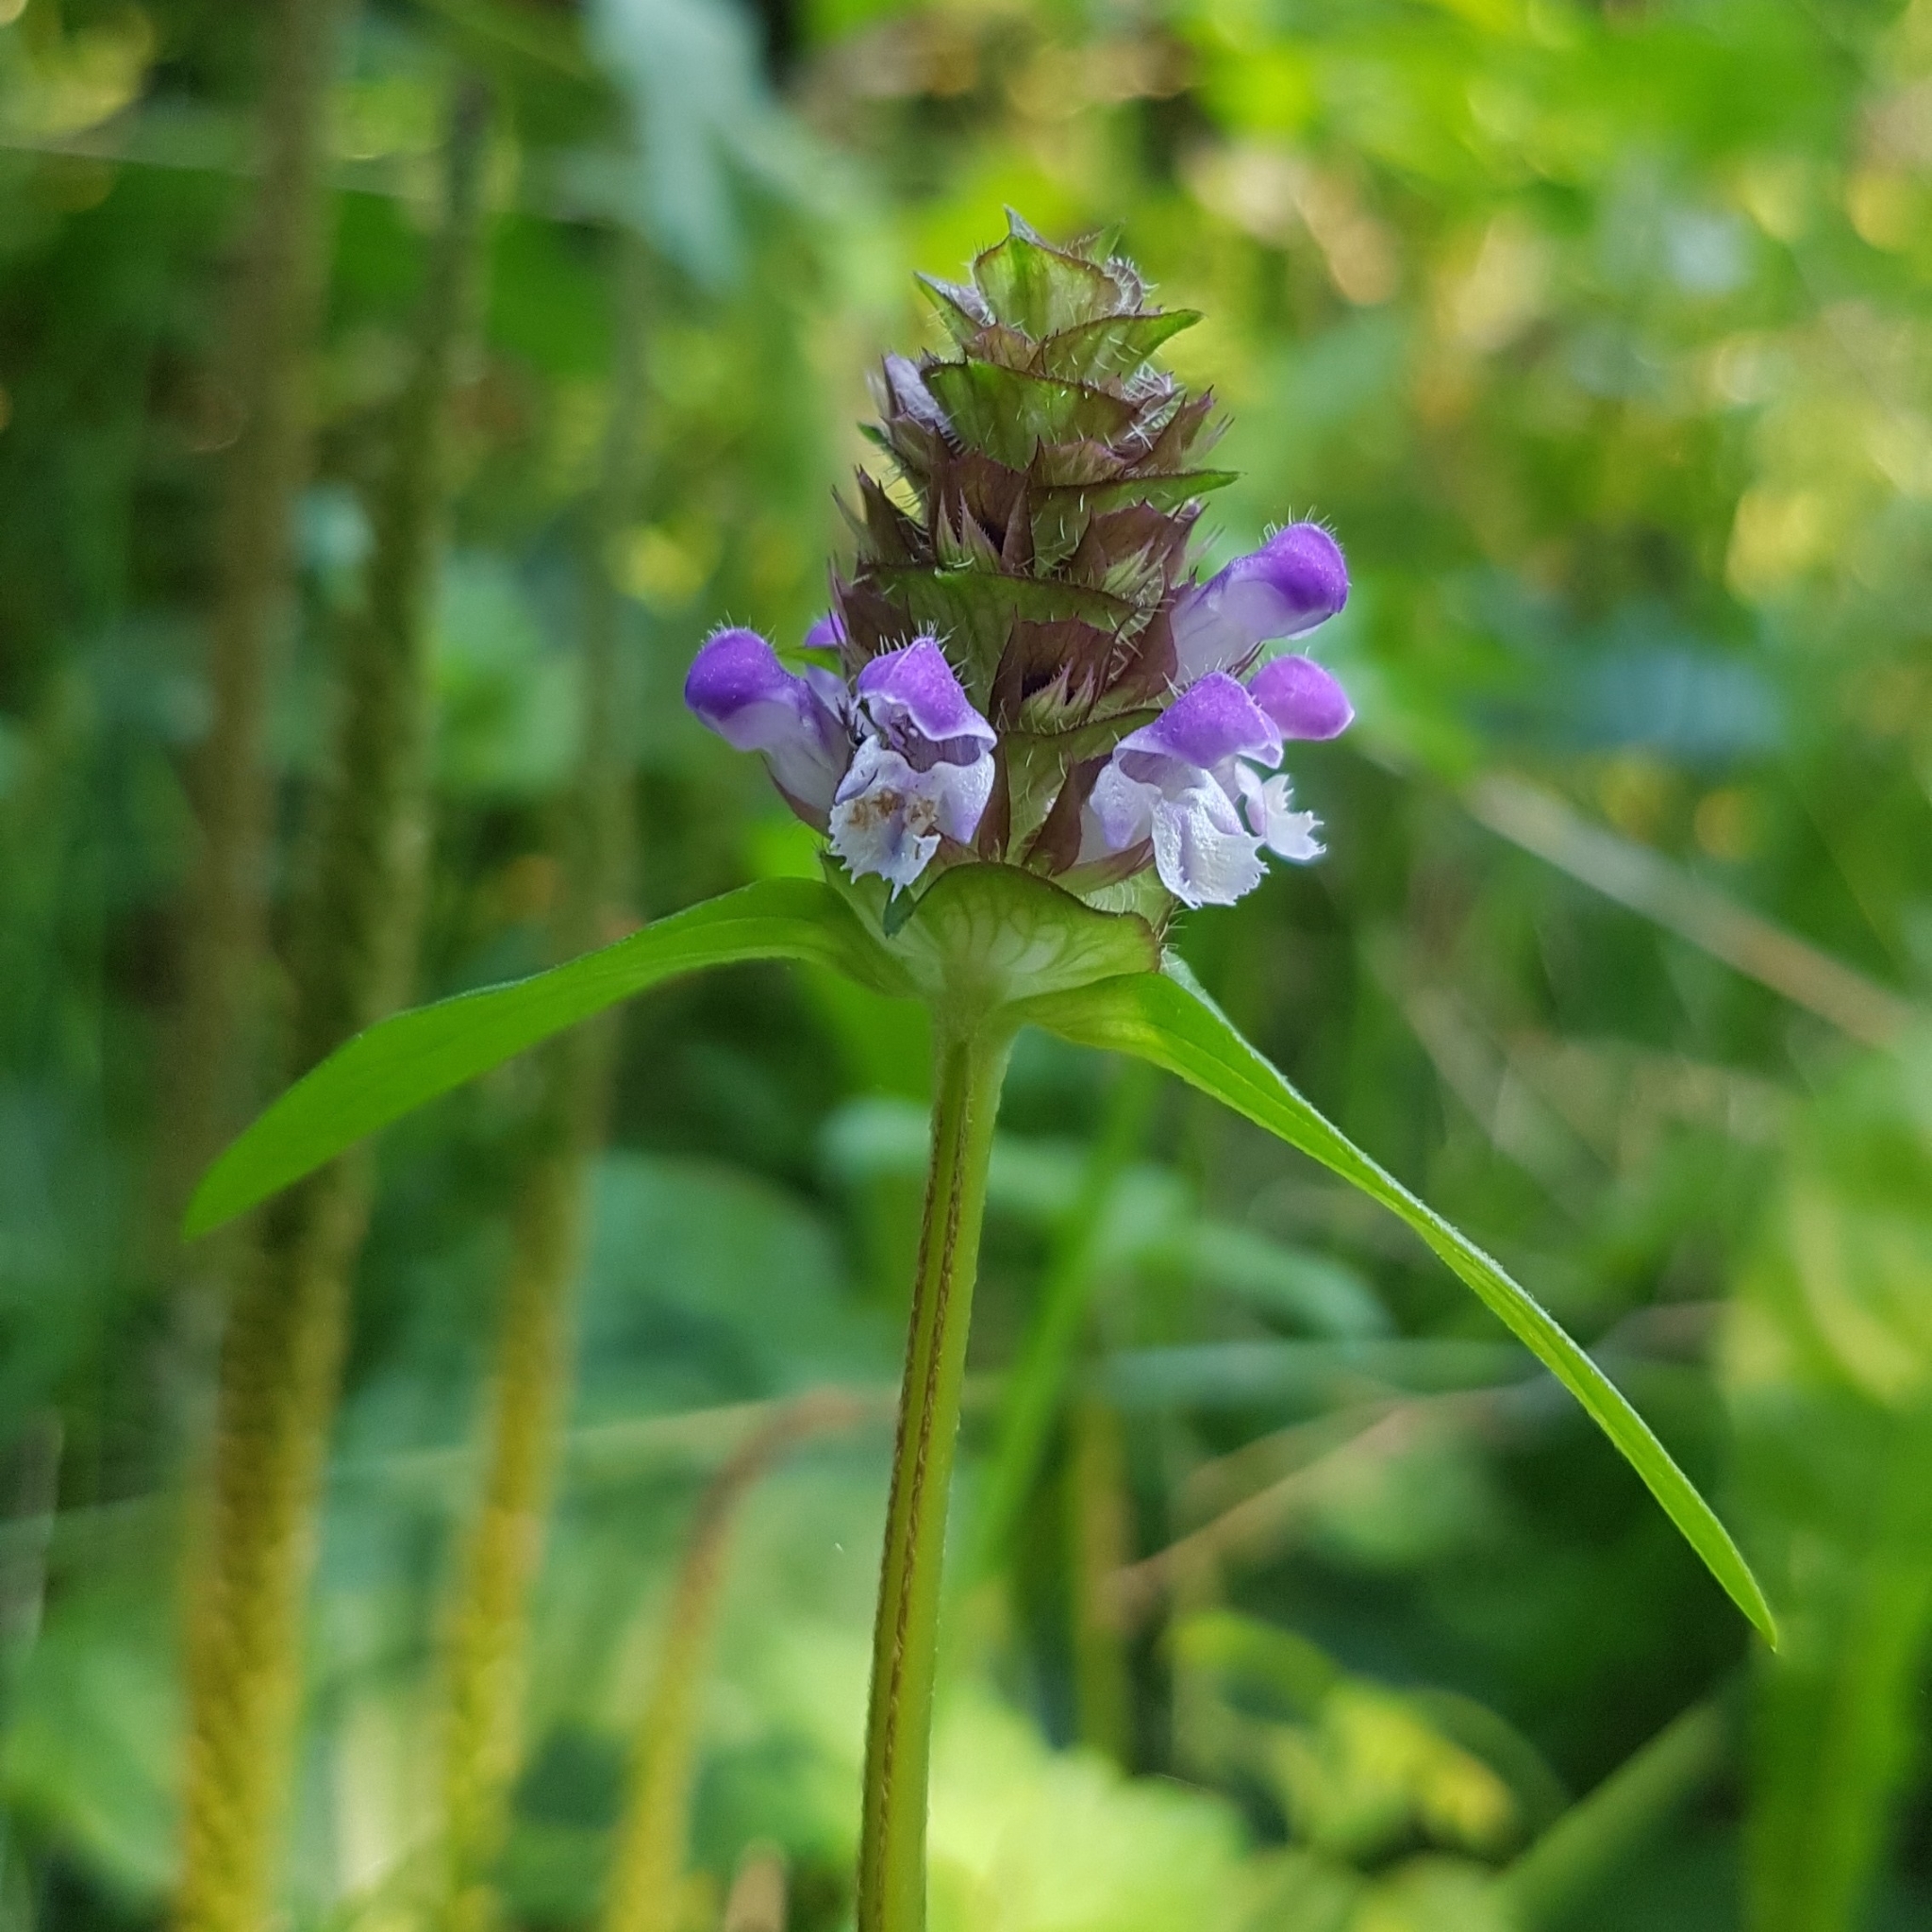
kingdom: Plantae
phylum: Tracheophyta
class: Magnoliopsida
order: Lamiales
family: Lamiaceae
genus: Prunella
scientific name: Prunella vulgaris
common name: Heal-all
